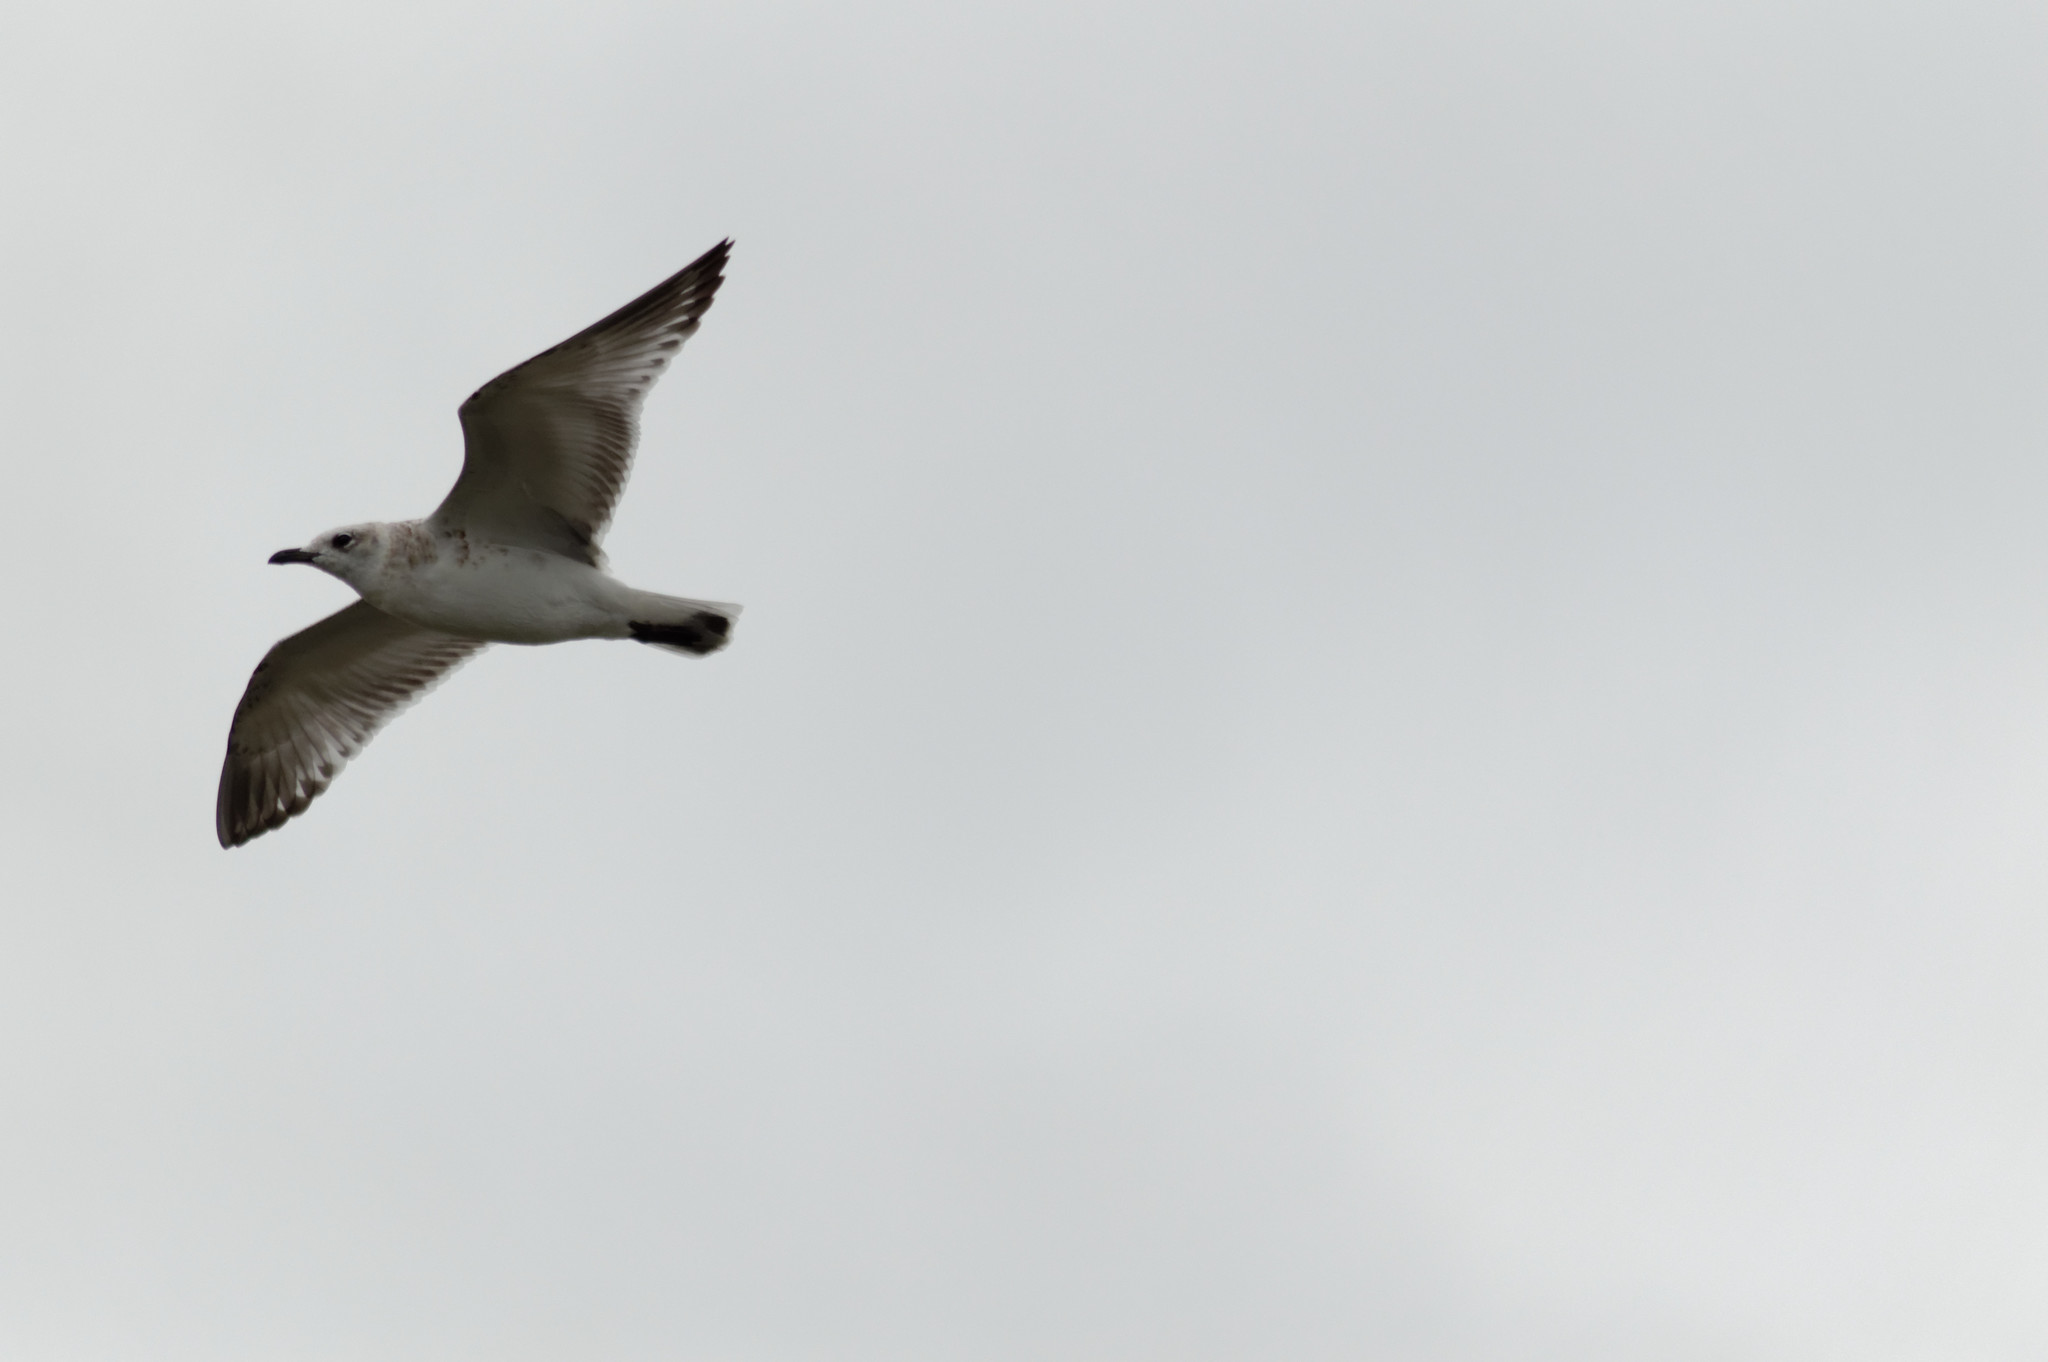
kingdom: Animalia
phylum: Chordata
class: Aves
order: Charadriiformes
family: Laridae
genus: Larus
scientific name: Larus canus
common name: Mew gull
